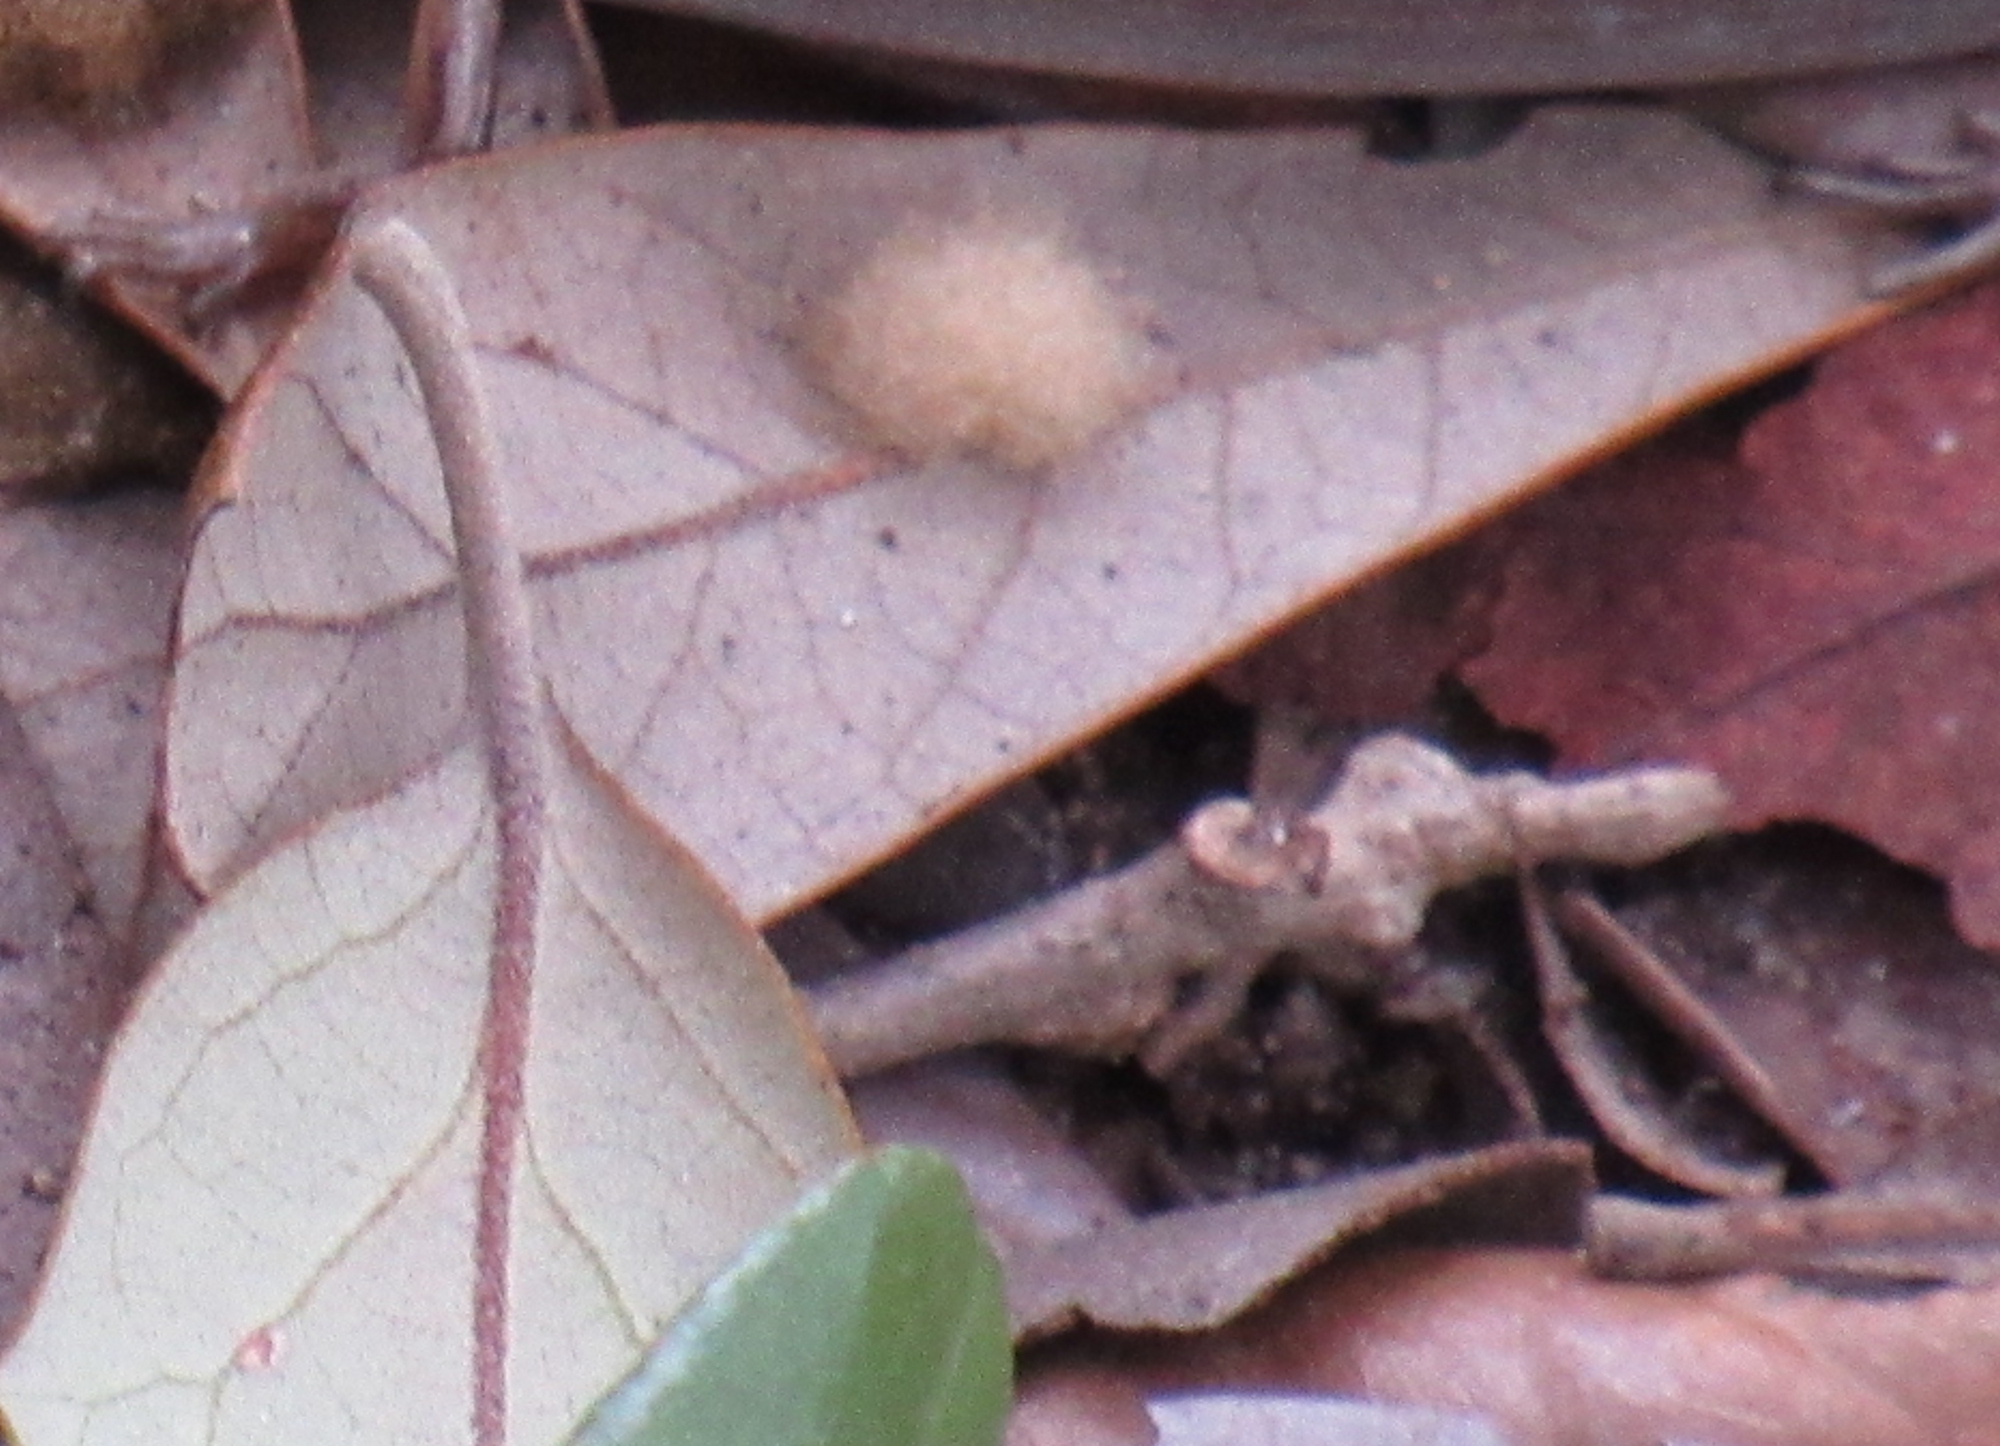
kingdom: Animalia
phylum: Arthropoda
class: Insecta
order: Hymenoptera
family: Cynipidae
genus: Andricus
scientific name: Andricus Druon quercuslanigerum
